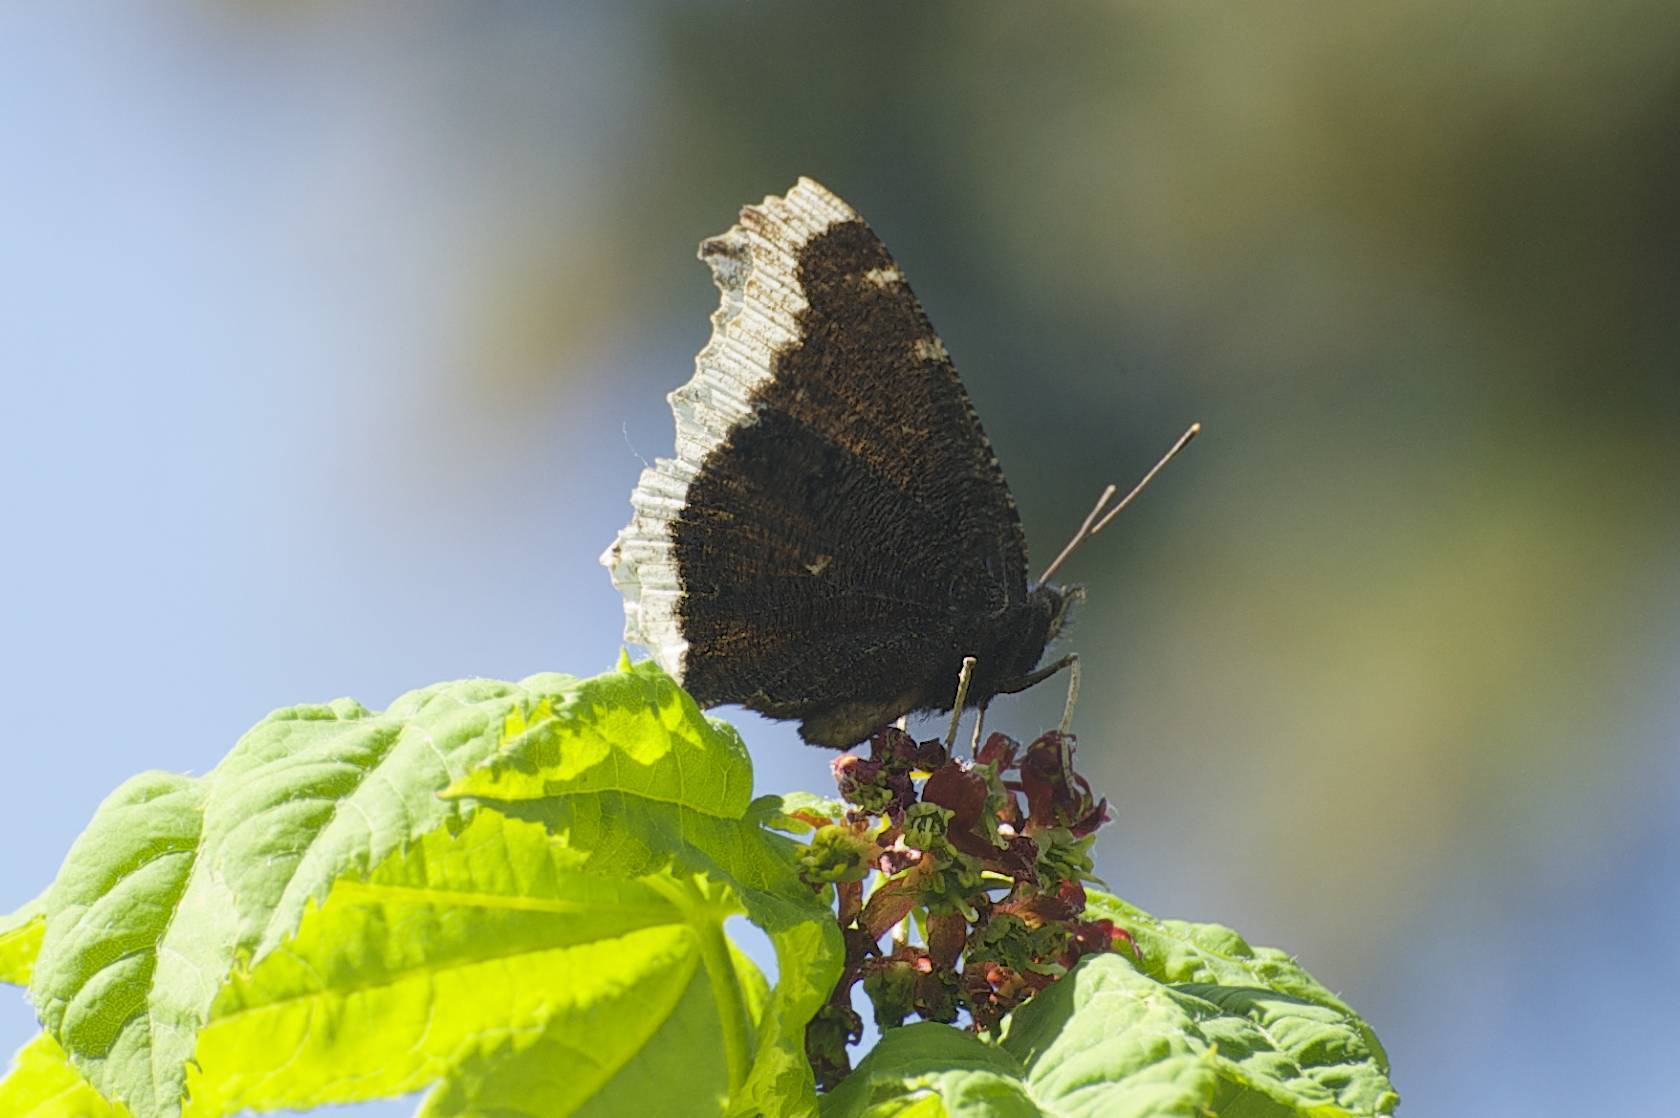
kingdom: Animalia
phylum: Arthropoda
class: Insecta
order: Lepidoptera
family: Nymphalidae
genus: Nymphalis
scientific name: Nymphalis antiopa
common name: Camberwell beauty
